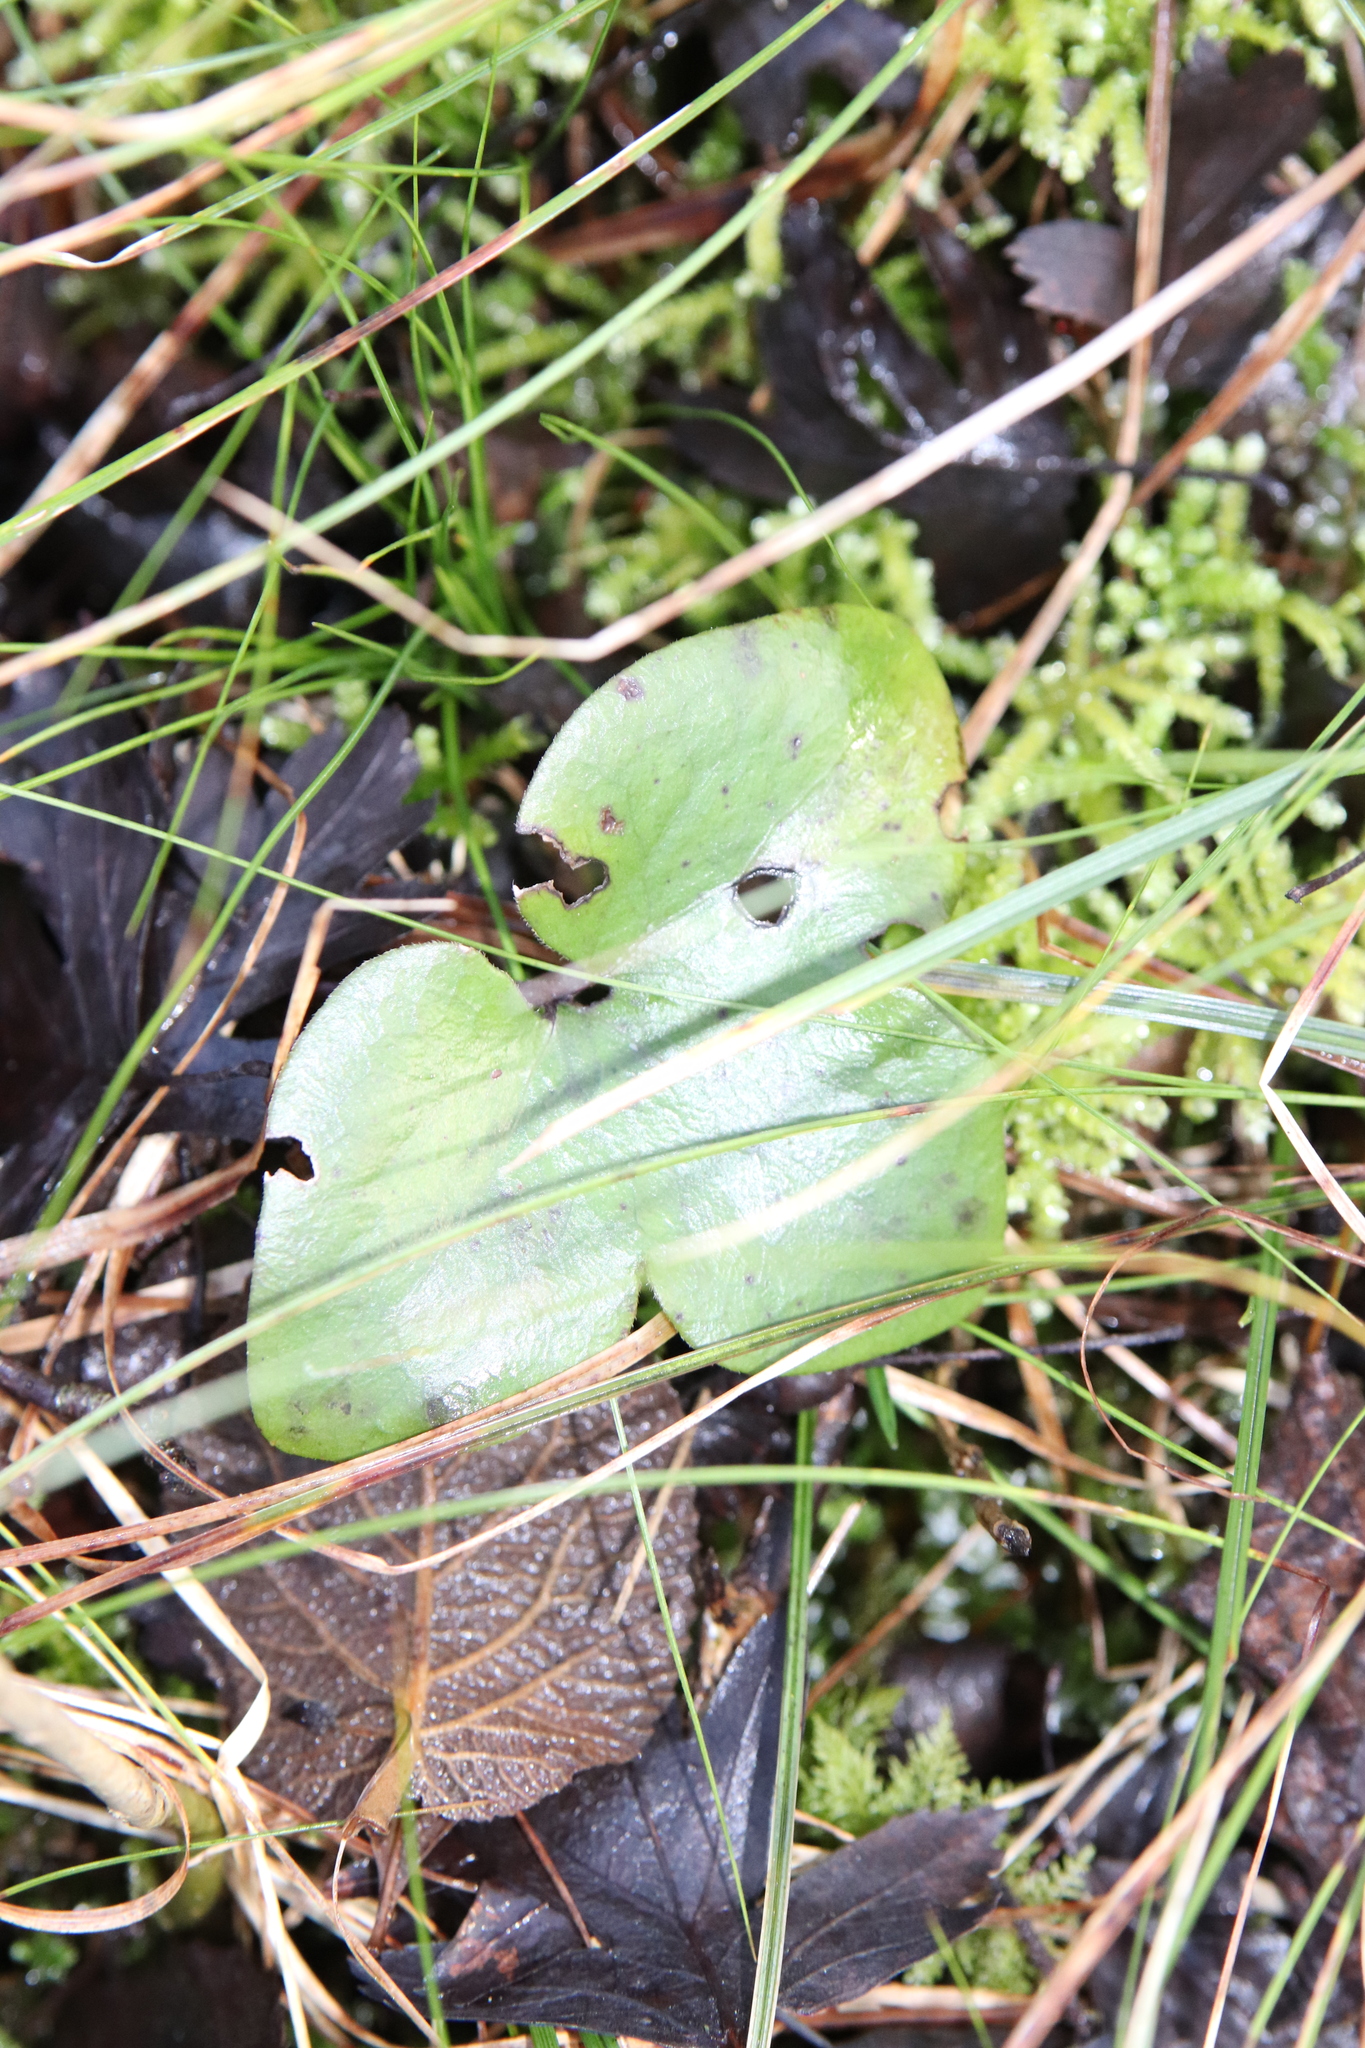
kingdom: Plantae
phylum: Tracheophyta
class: Magnoliopsida
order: Ranunculales
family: Ranunculaceae
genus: Hepatica
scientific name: Hepatica nobilis
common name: Liverleaf
